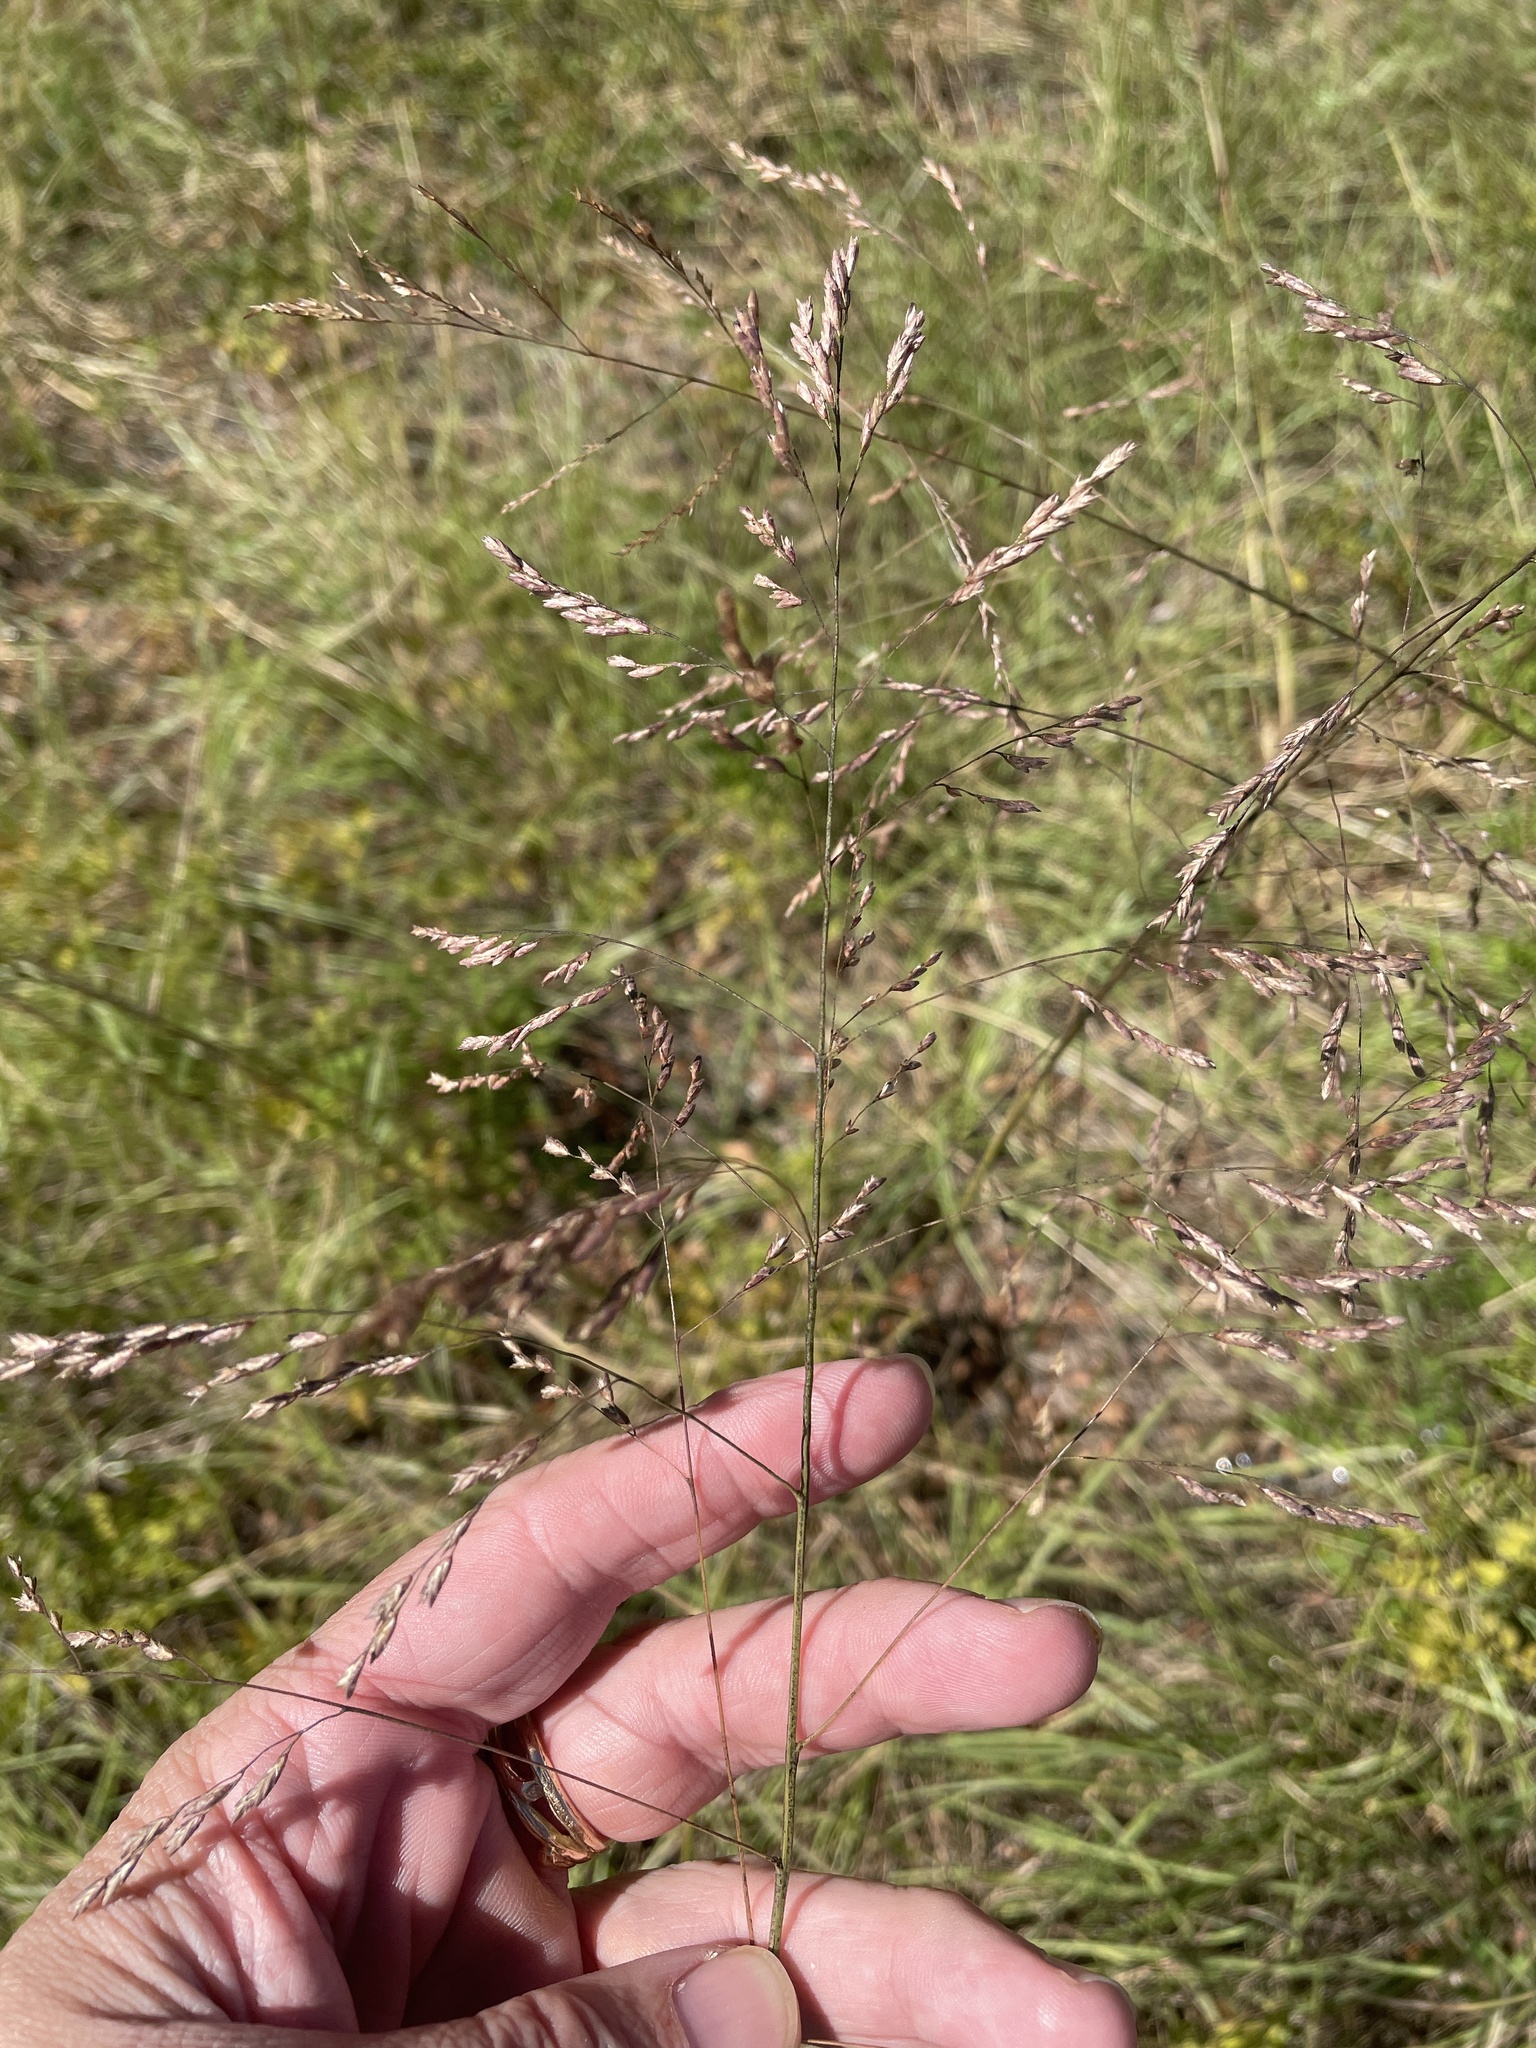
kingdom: Plantae
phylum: Tracheophyta
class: Liliopsida
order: Poales
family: Poaceae
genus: Tridens
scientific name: Tridens flavus
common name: Purpletop
